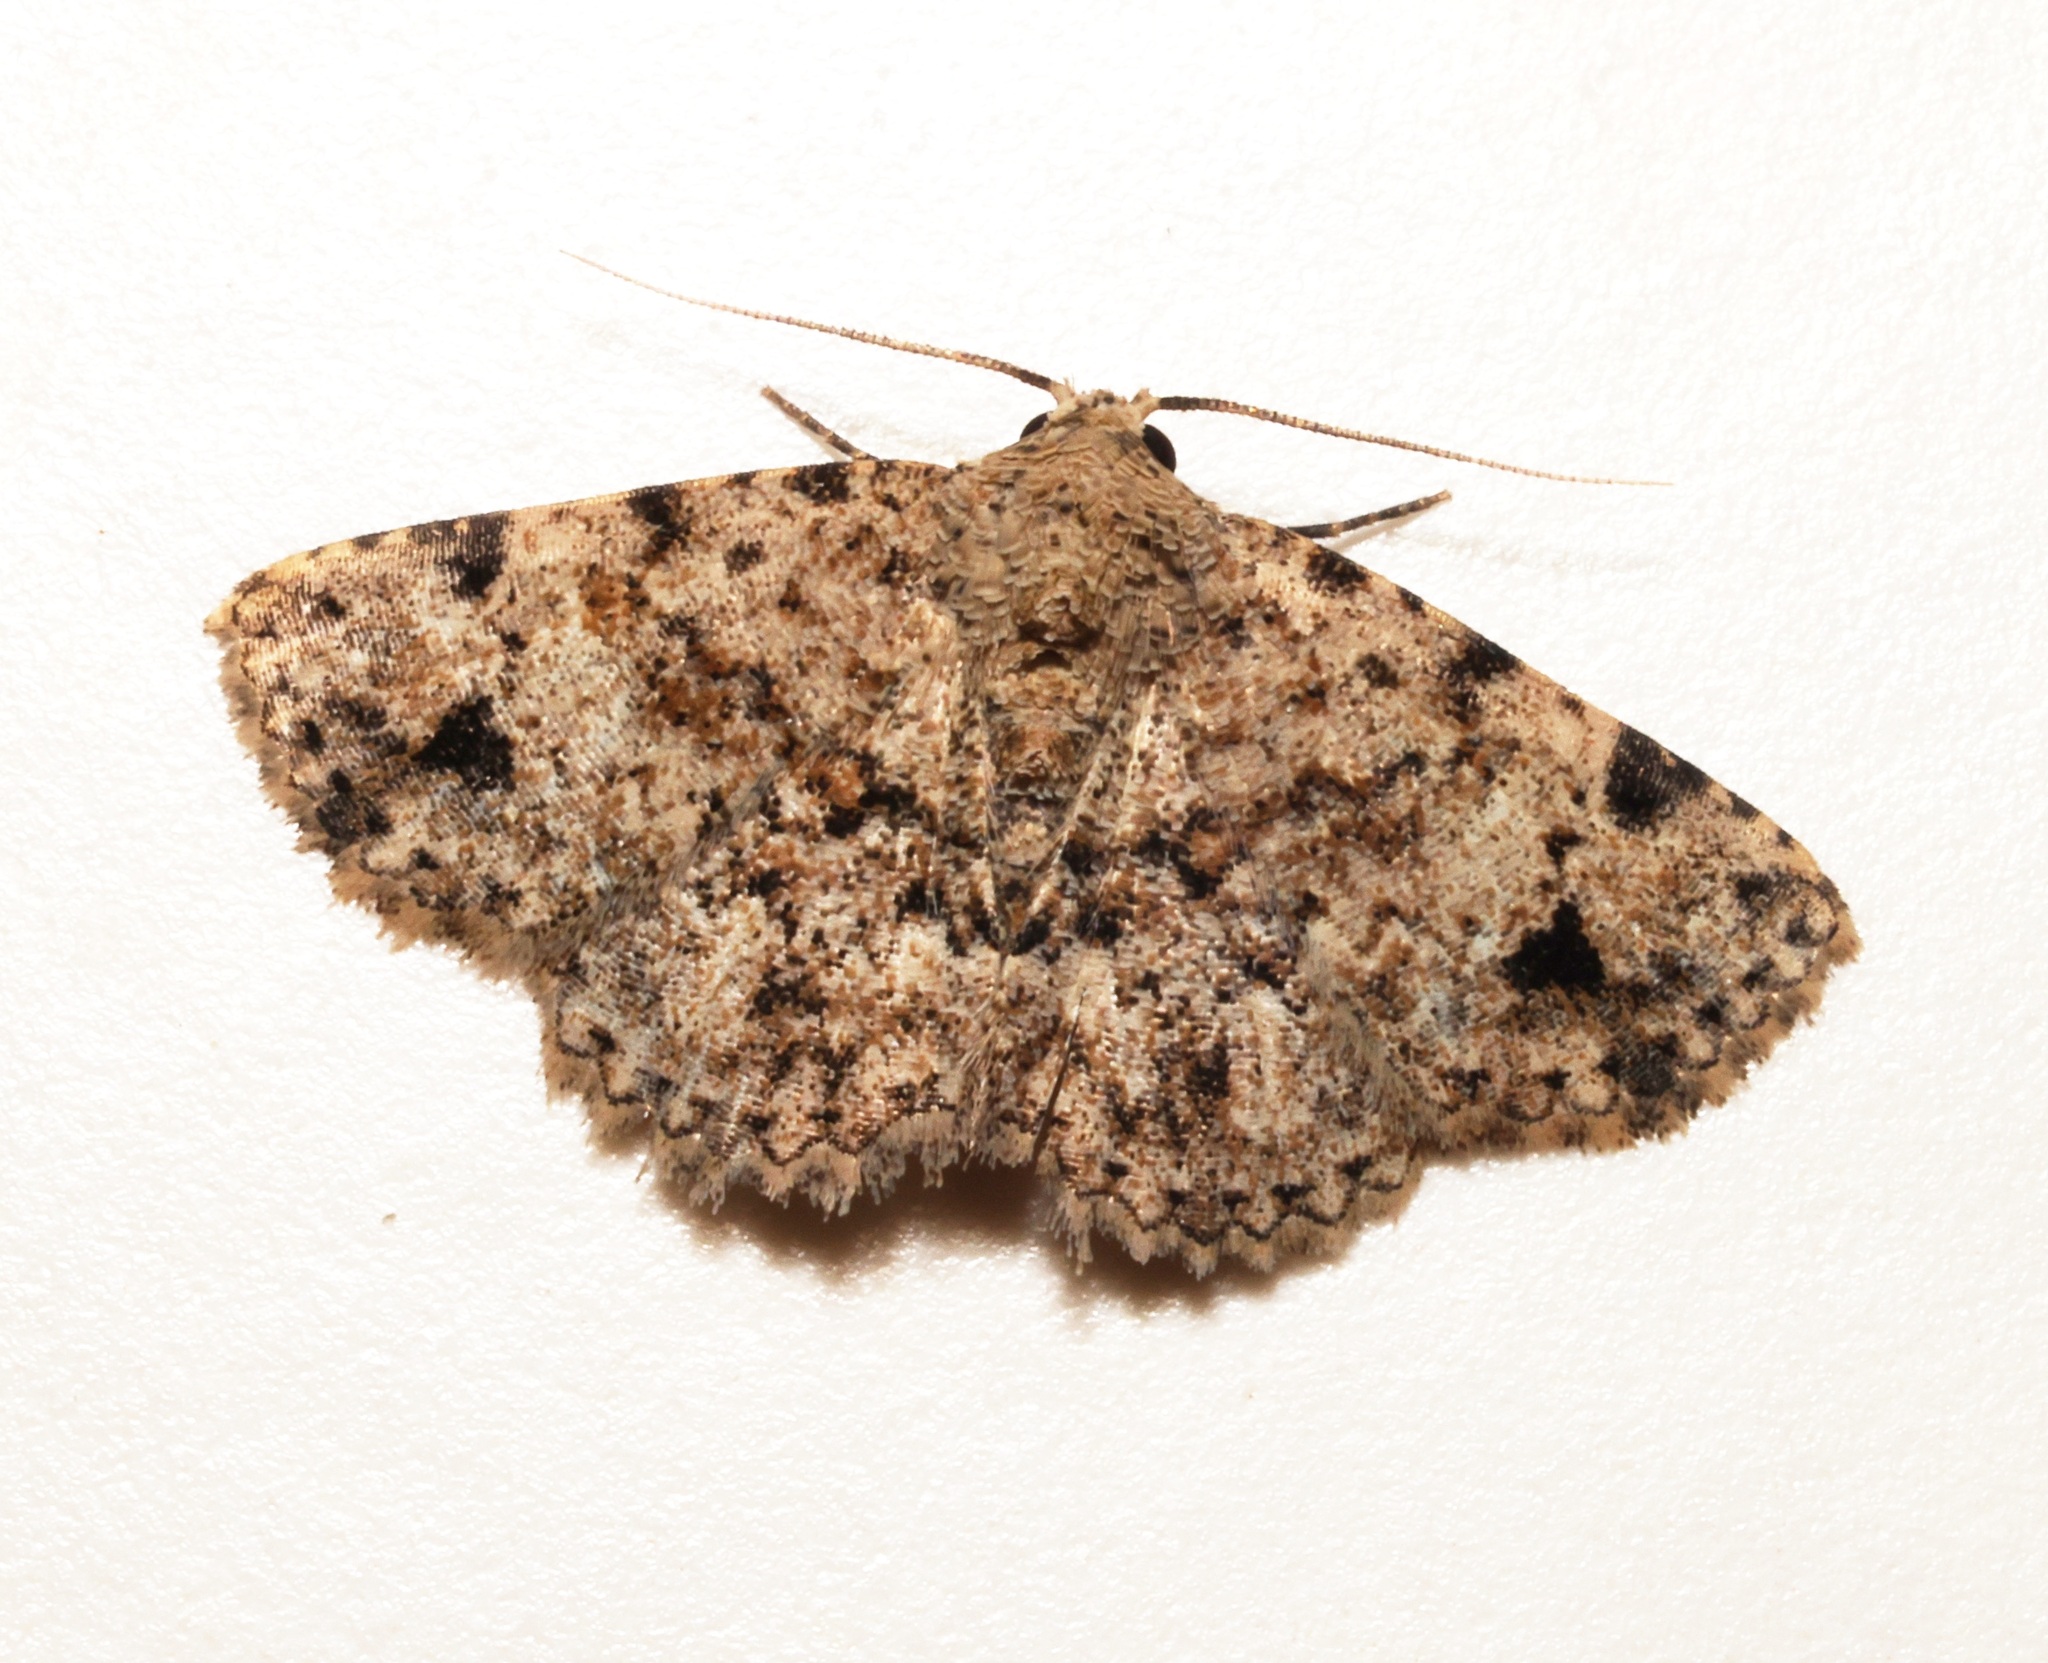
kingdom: Animalia
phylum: Arthropoda
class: Insecta
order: Lepidoptera
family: Erebidae
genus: Panilla
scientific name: Panilla poliochroa
